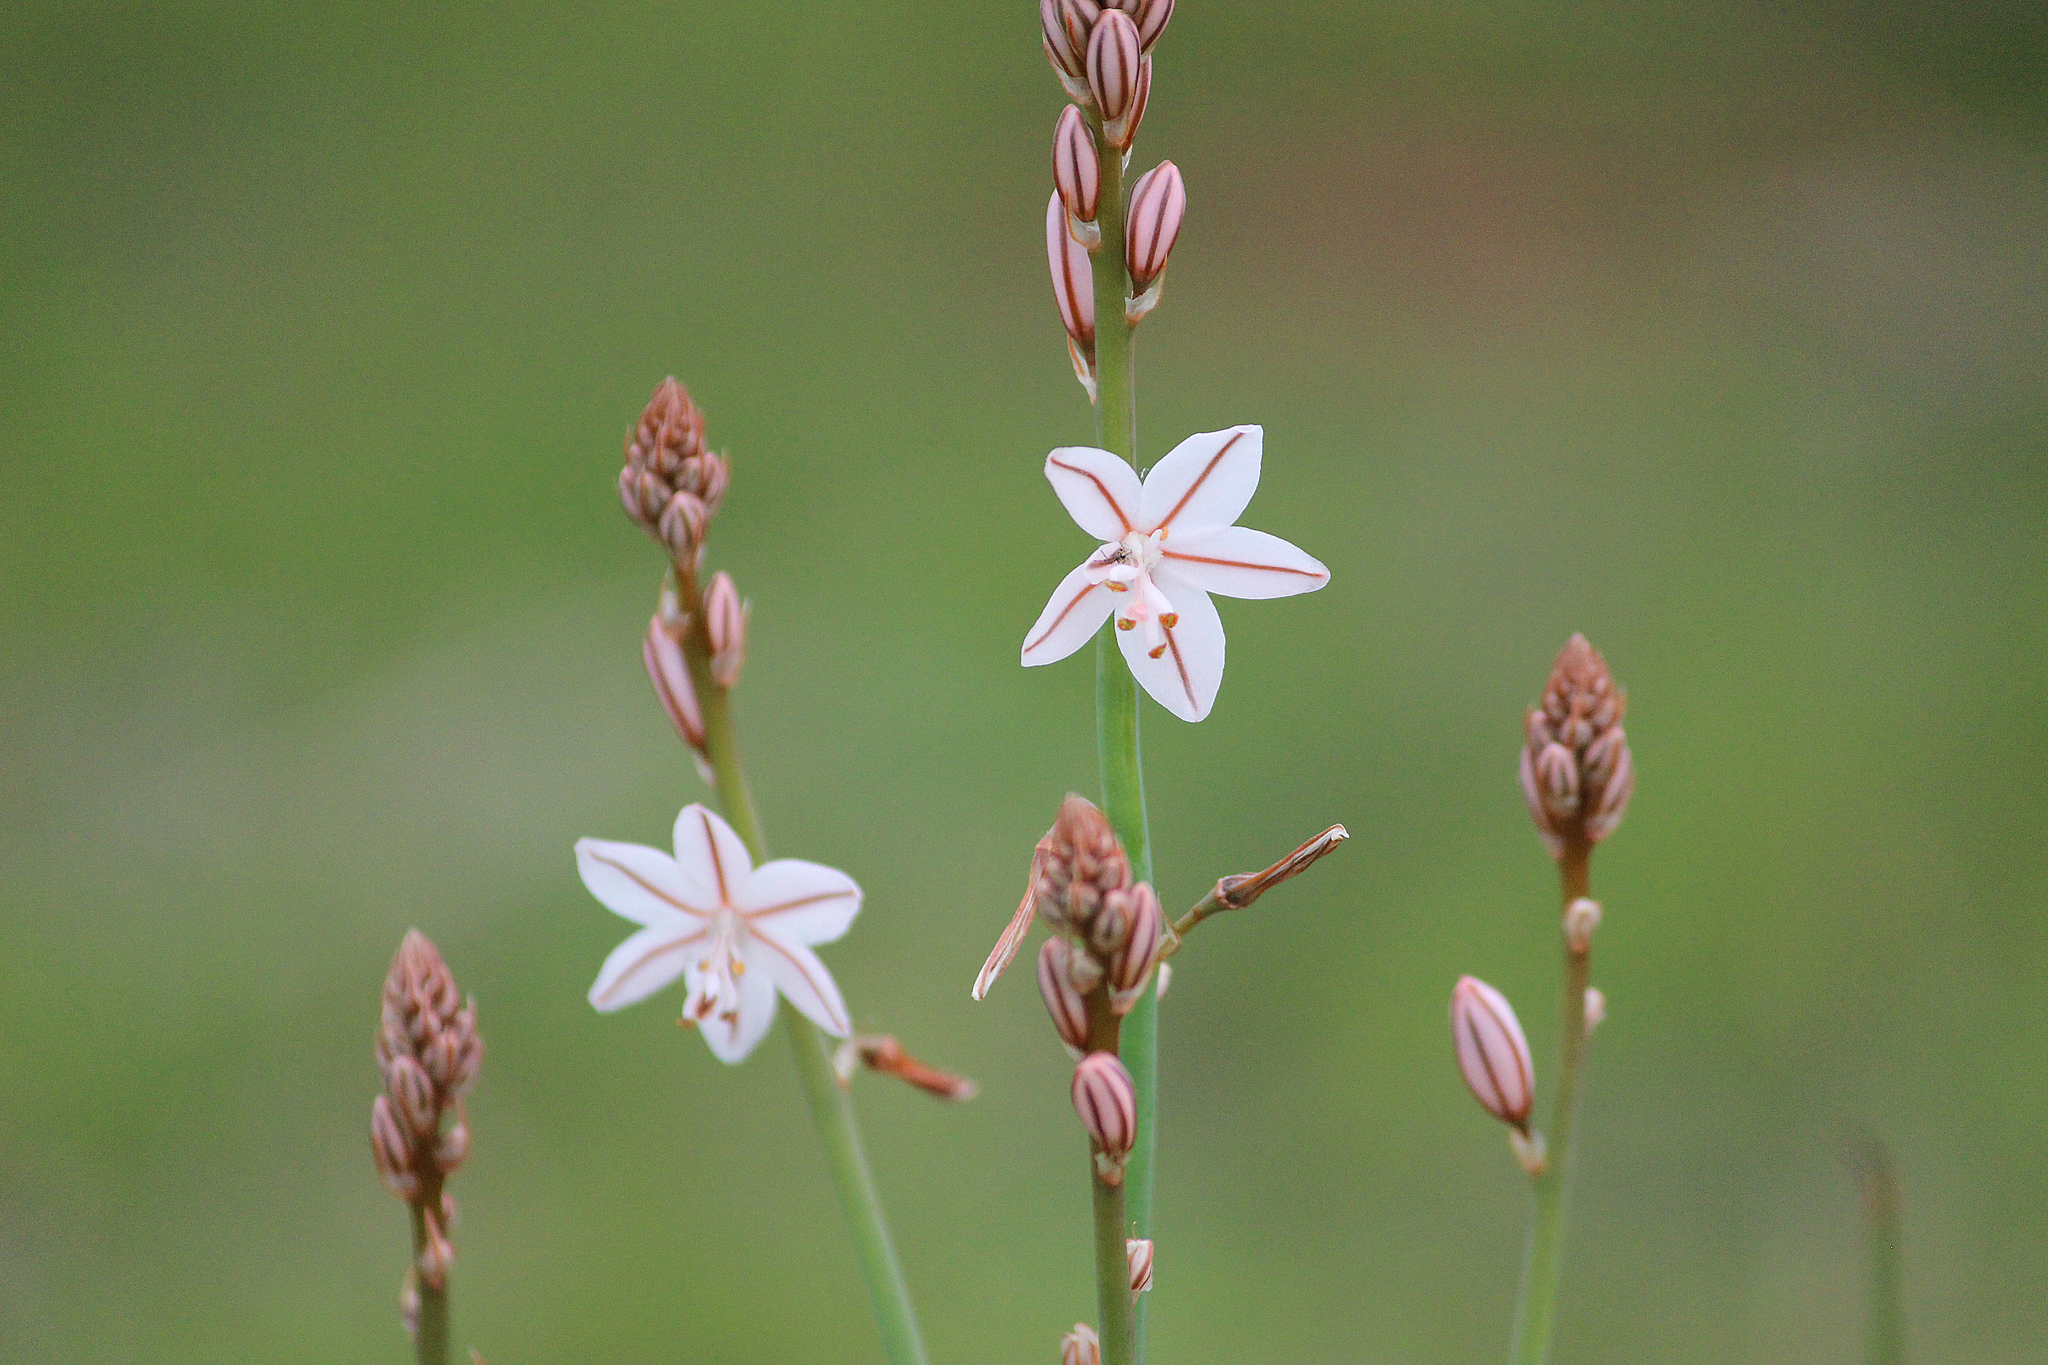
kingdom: Plantae
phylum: Tracheophyta
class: Liliopsida
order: Asparagales
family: Asphodelaceae
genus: Asphodelus
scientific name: Asphodelus fistulosus
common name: Onionweed
